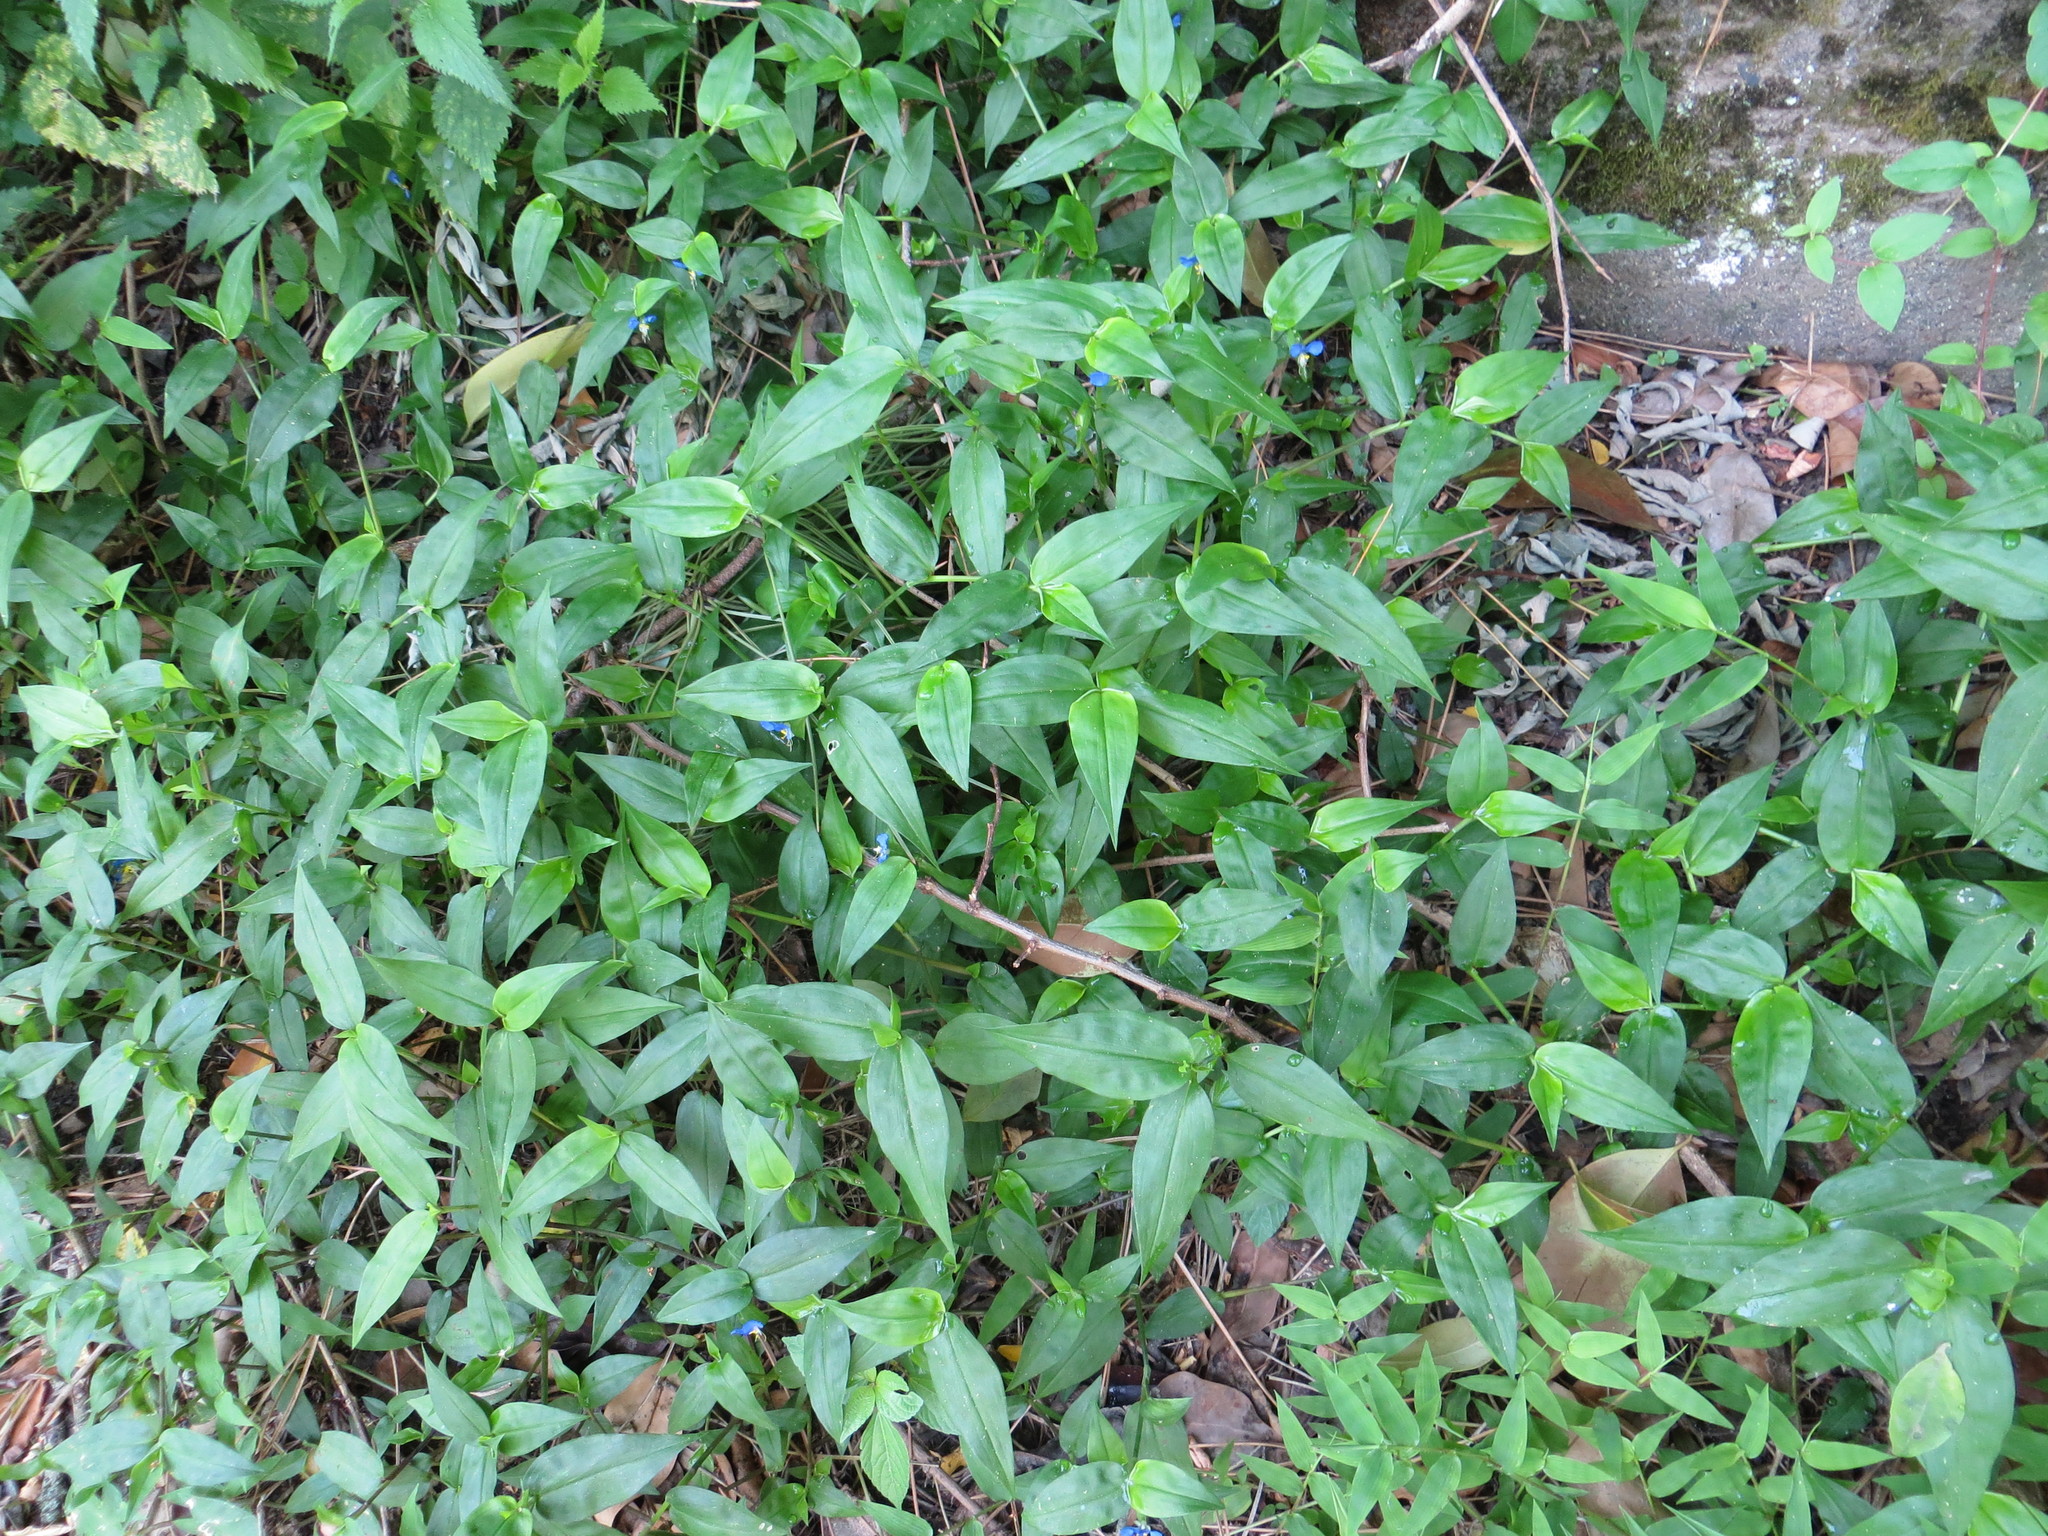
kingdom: Plantae
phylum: Tracheophyta
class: Liliopsida
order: Commelinales
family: Commelinaceae
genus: Commelina
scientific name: Commelina communis
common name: Asiatic dayflower
